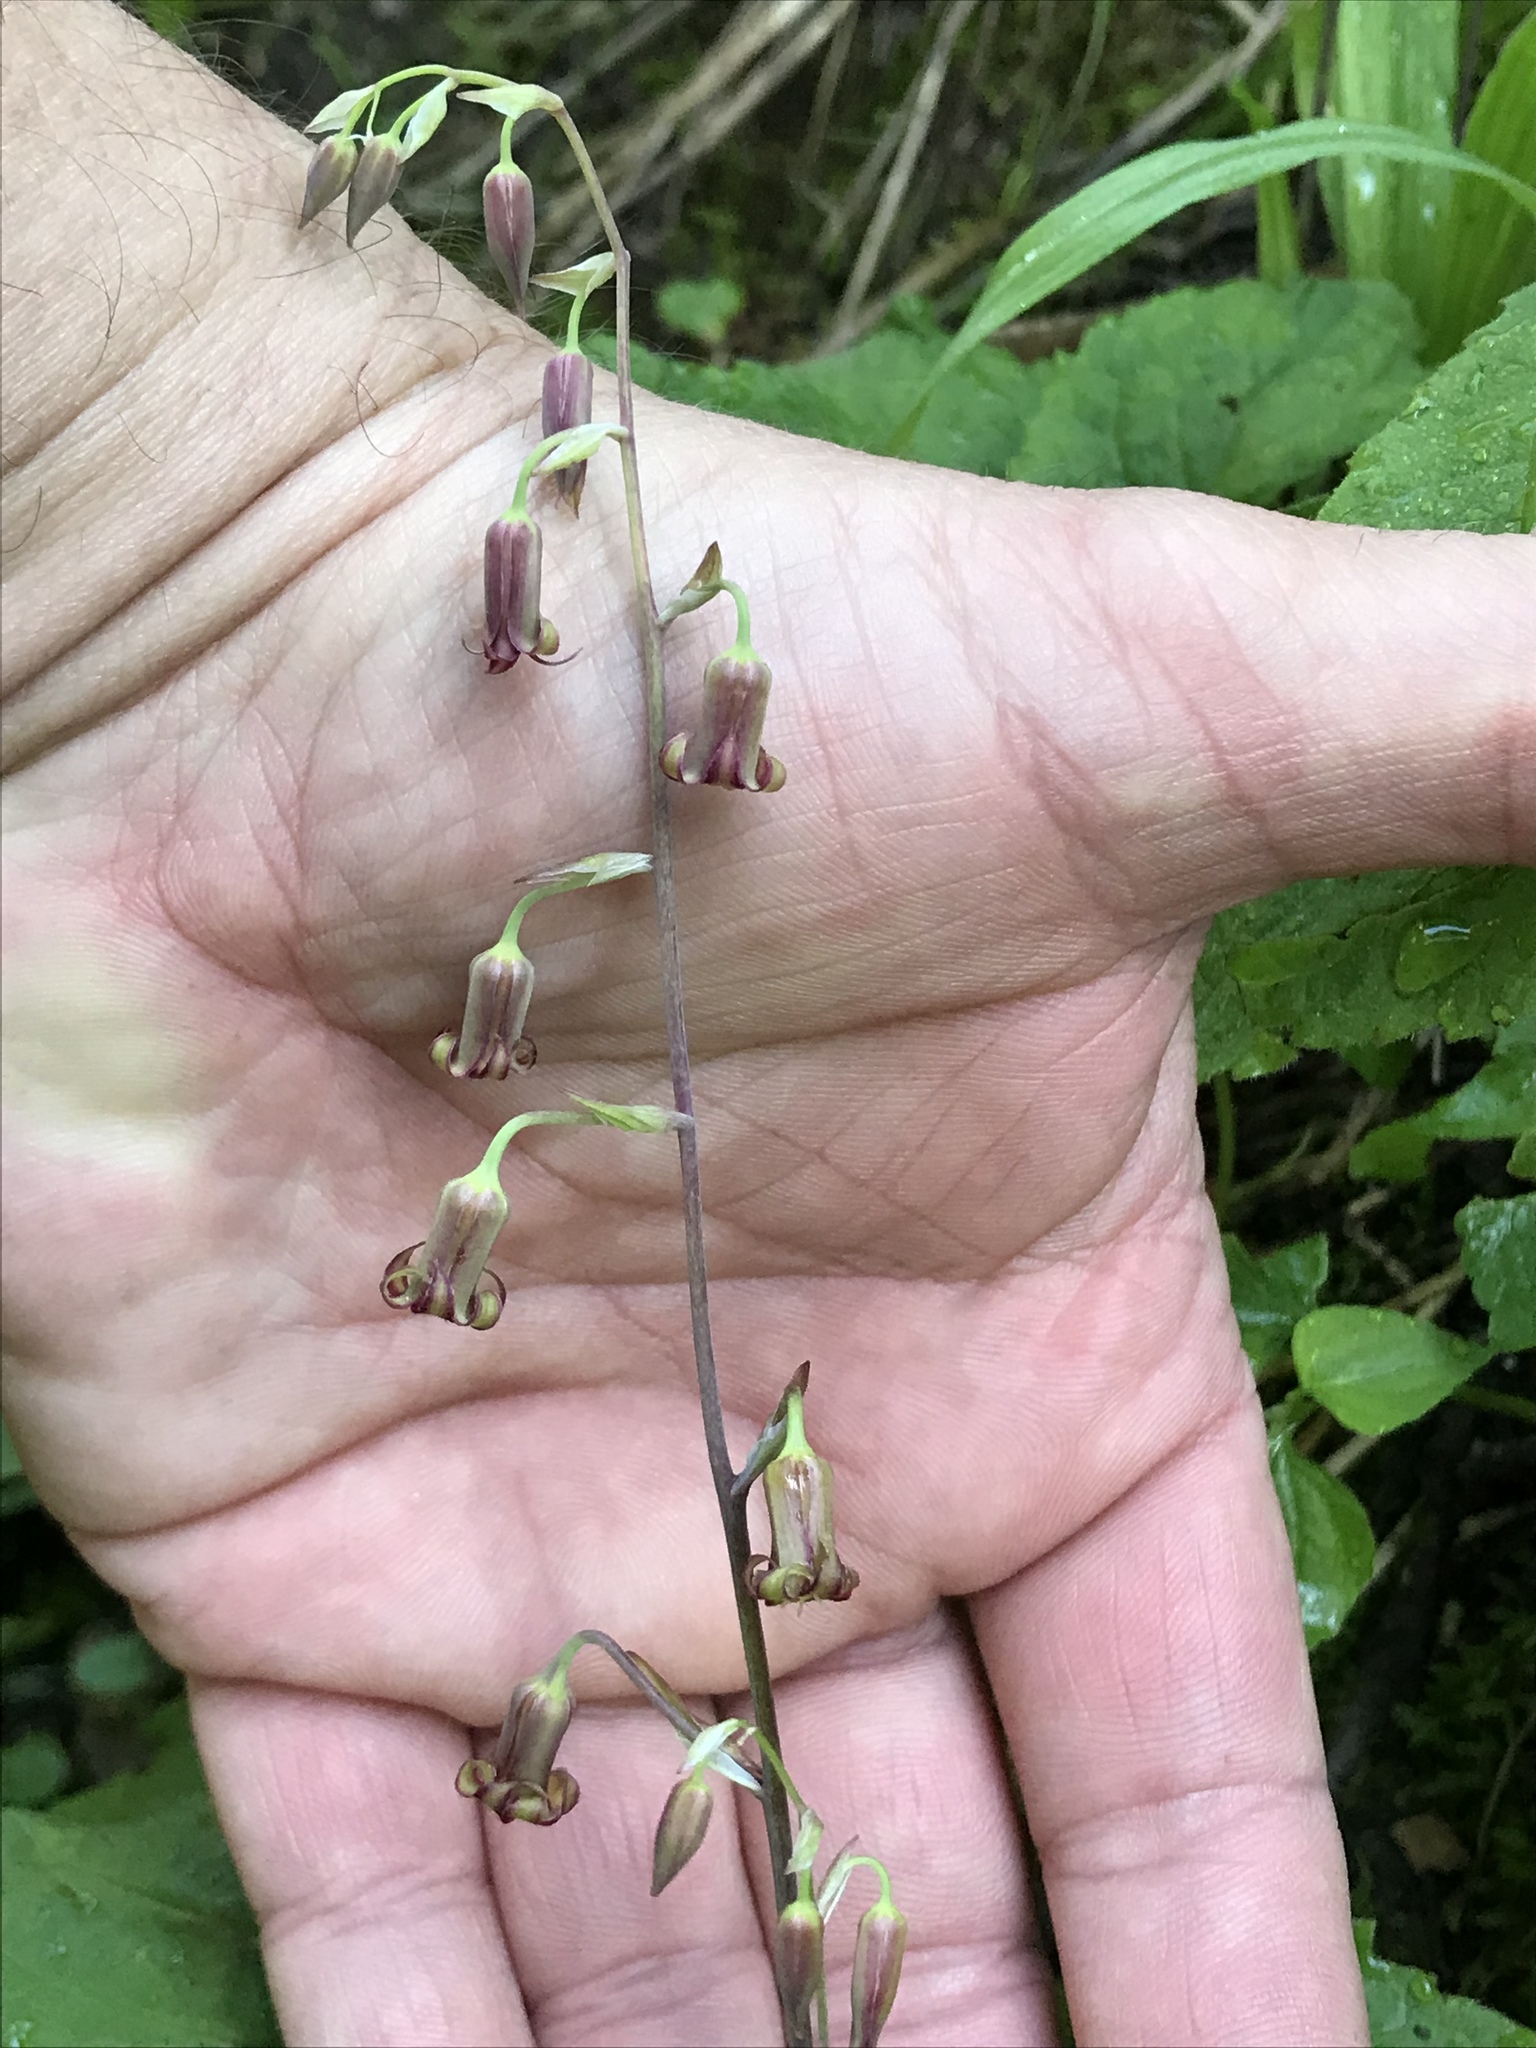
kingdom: Plantae
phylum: Tracheophyta
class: Liliopsida
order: Liliales
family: Melanthiaceae
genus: Anticlea
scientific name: Anticlea occidentalis
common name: Bronze-bells
